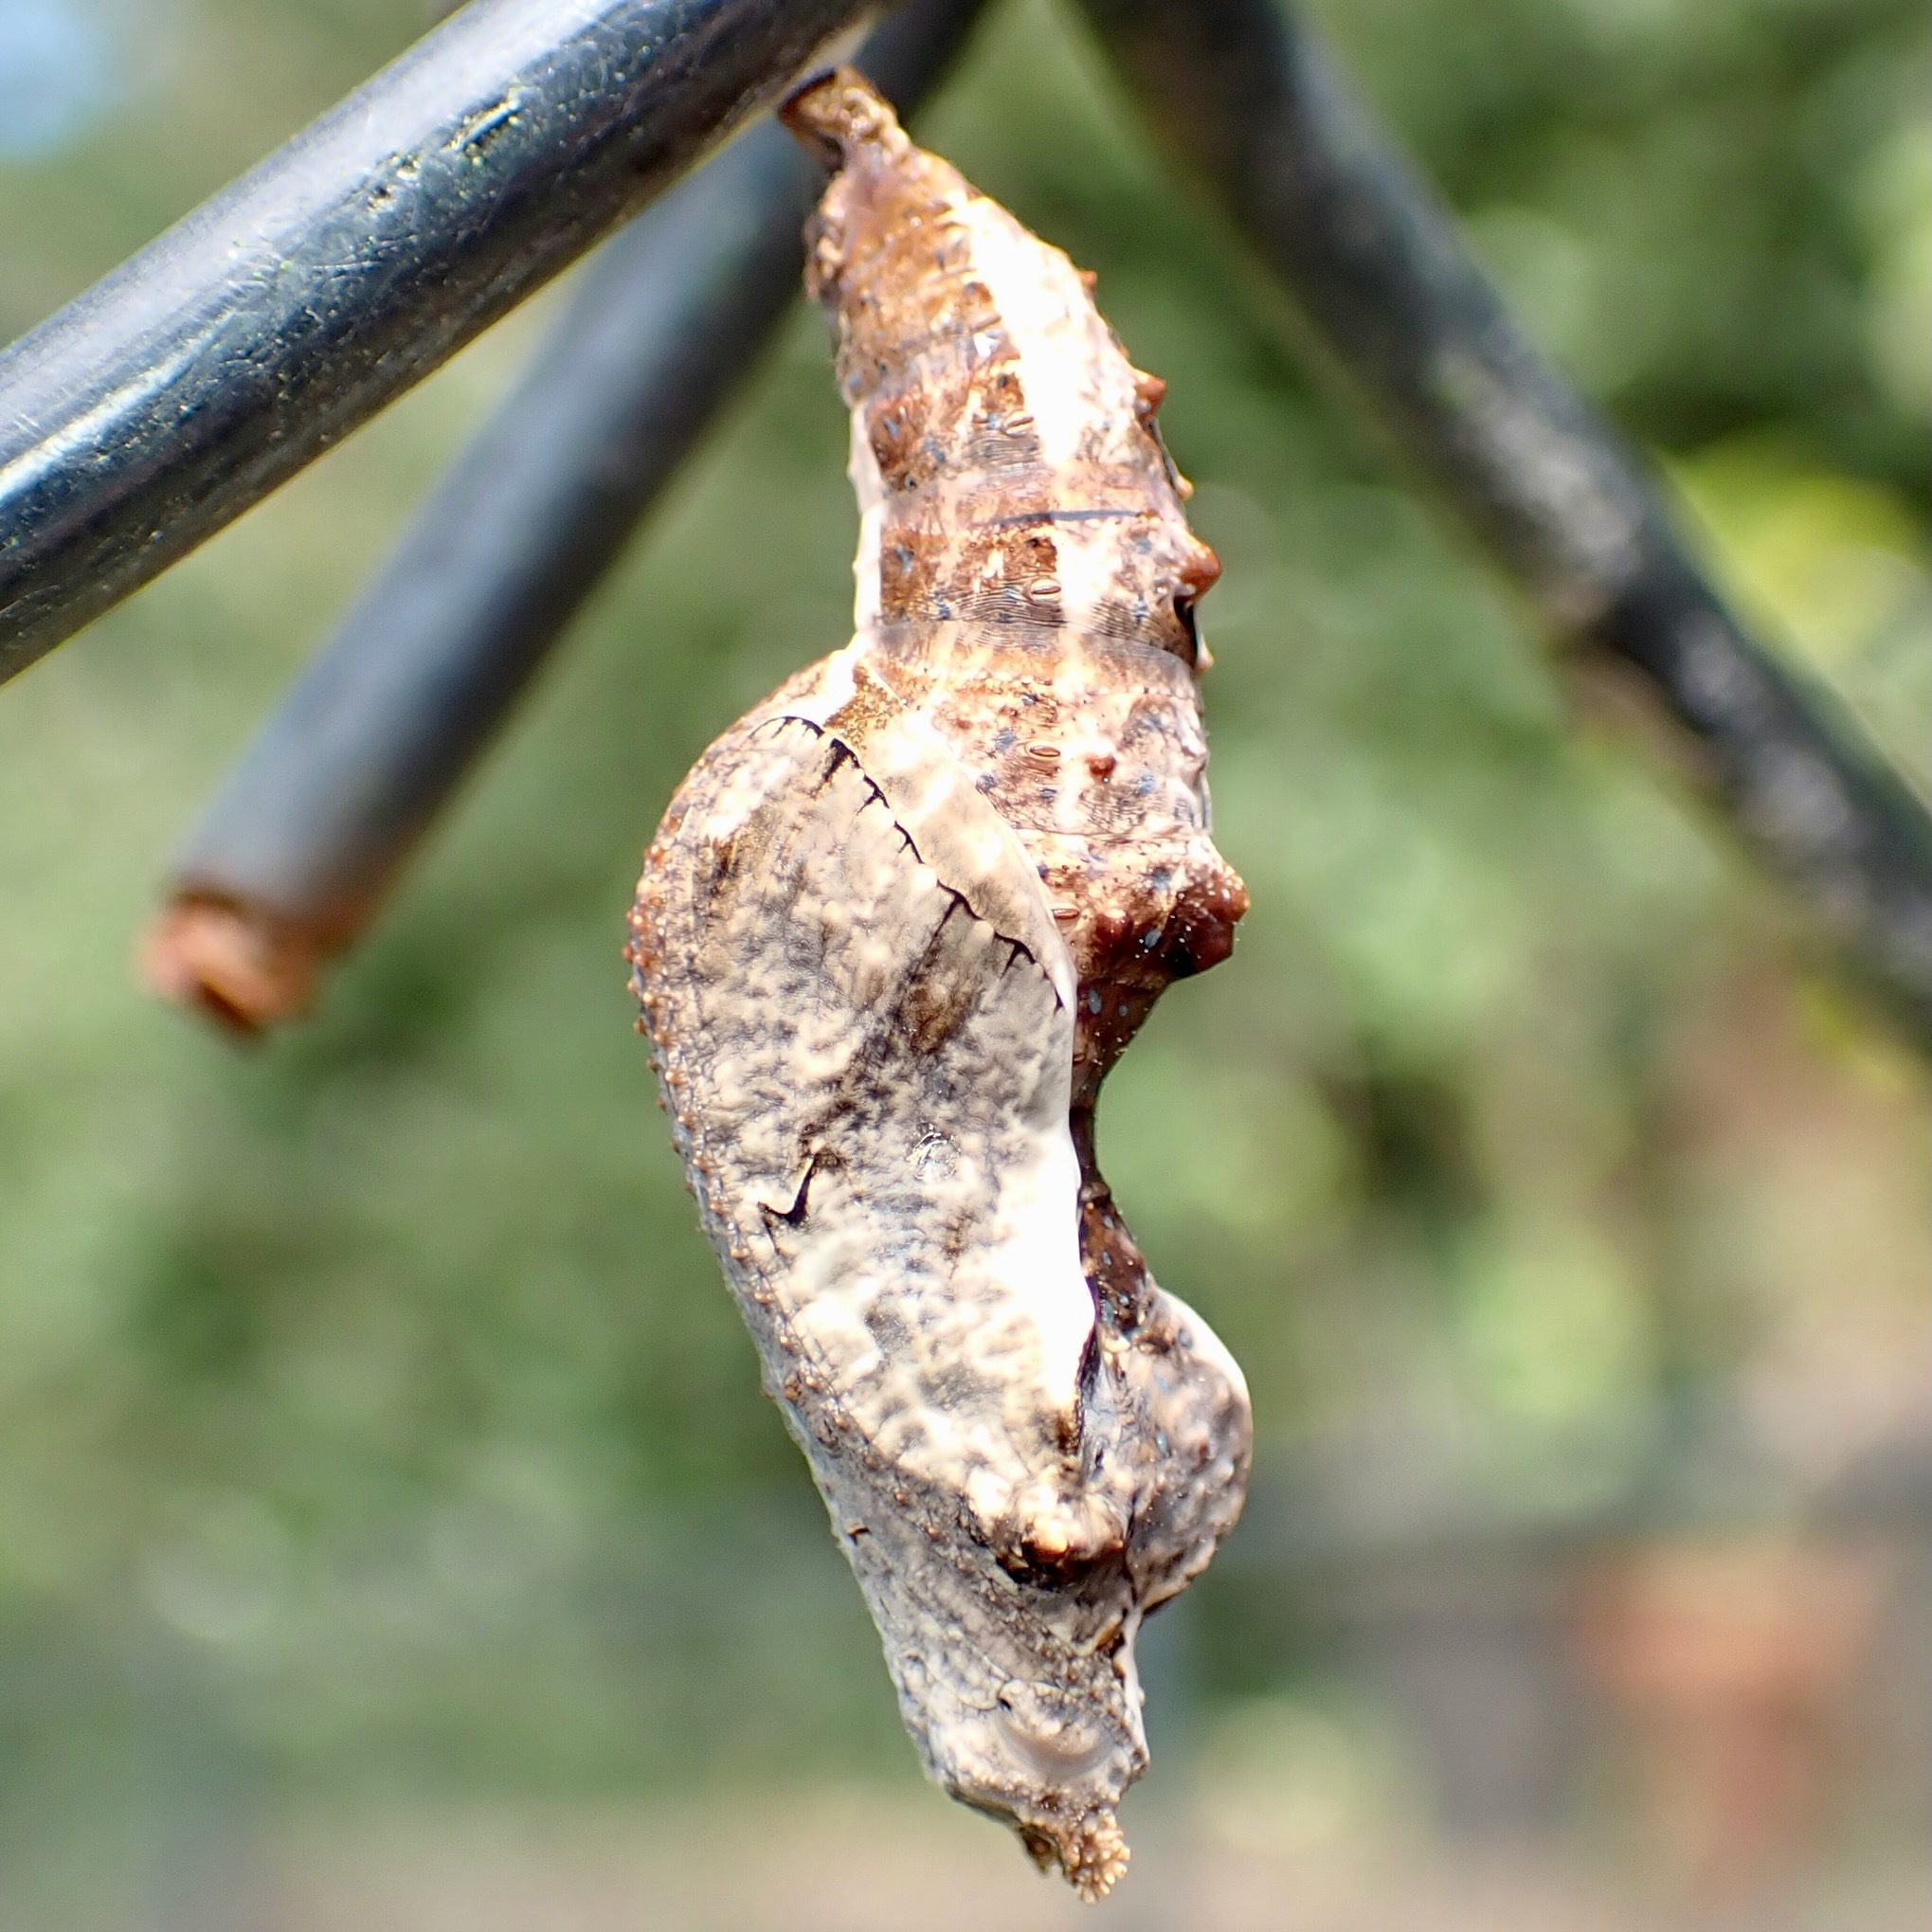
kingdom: Animalia
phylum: Arthropoda
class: Insecta
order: Lepidoptera
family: Nymphalidae
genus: Dione
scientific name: Dione vanillae
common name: Gulf fritillary
